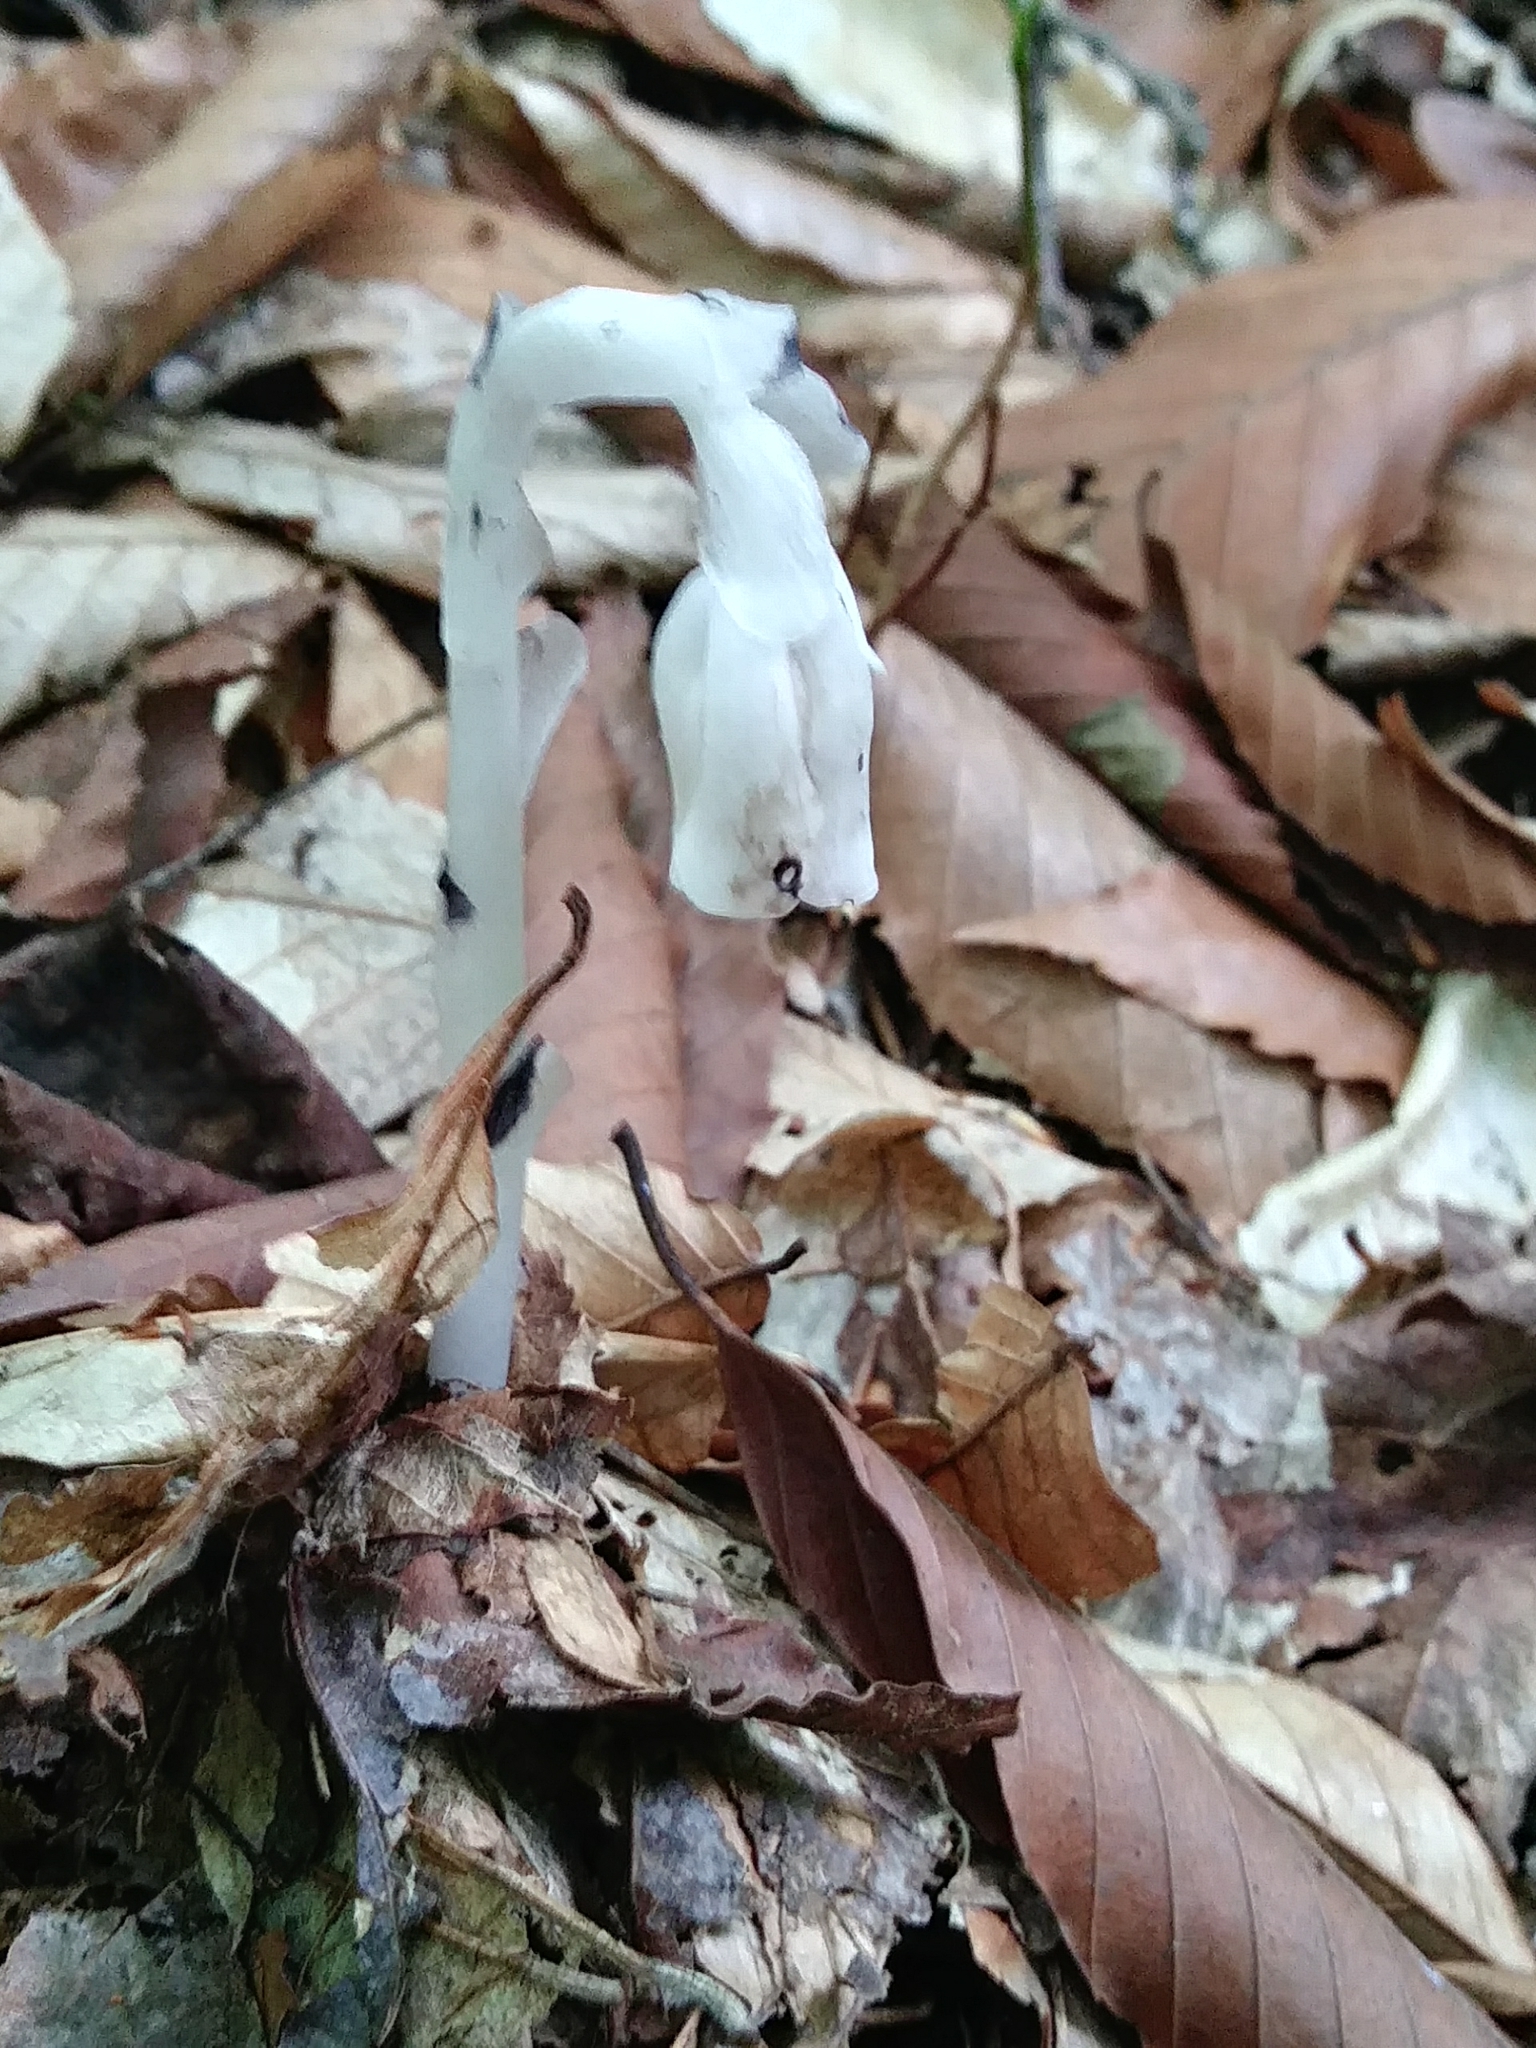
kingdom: Plantae
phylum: Tracheophyta
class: Magnoliopsida
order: Ericales
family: Ericaceae
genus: Monotropa
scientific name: Monotropa uniflora
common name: Convulsion root
